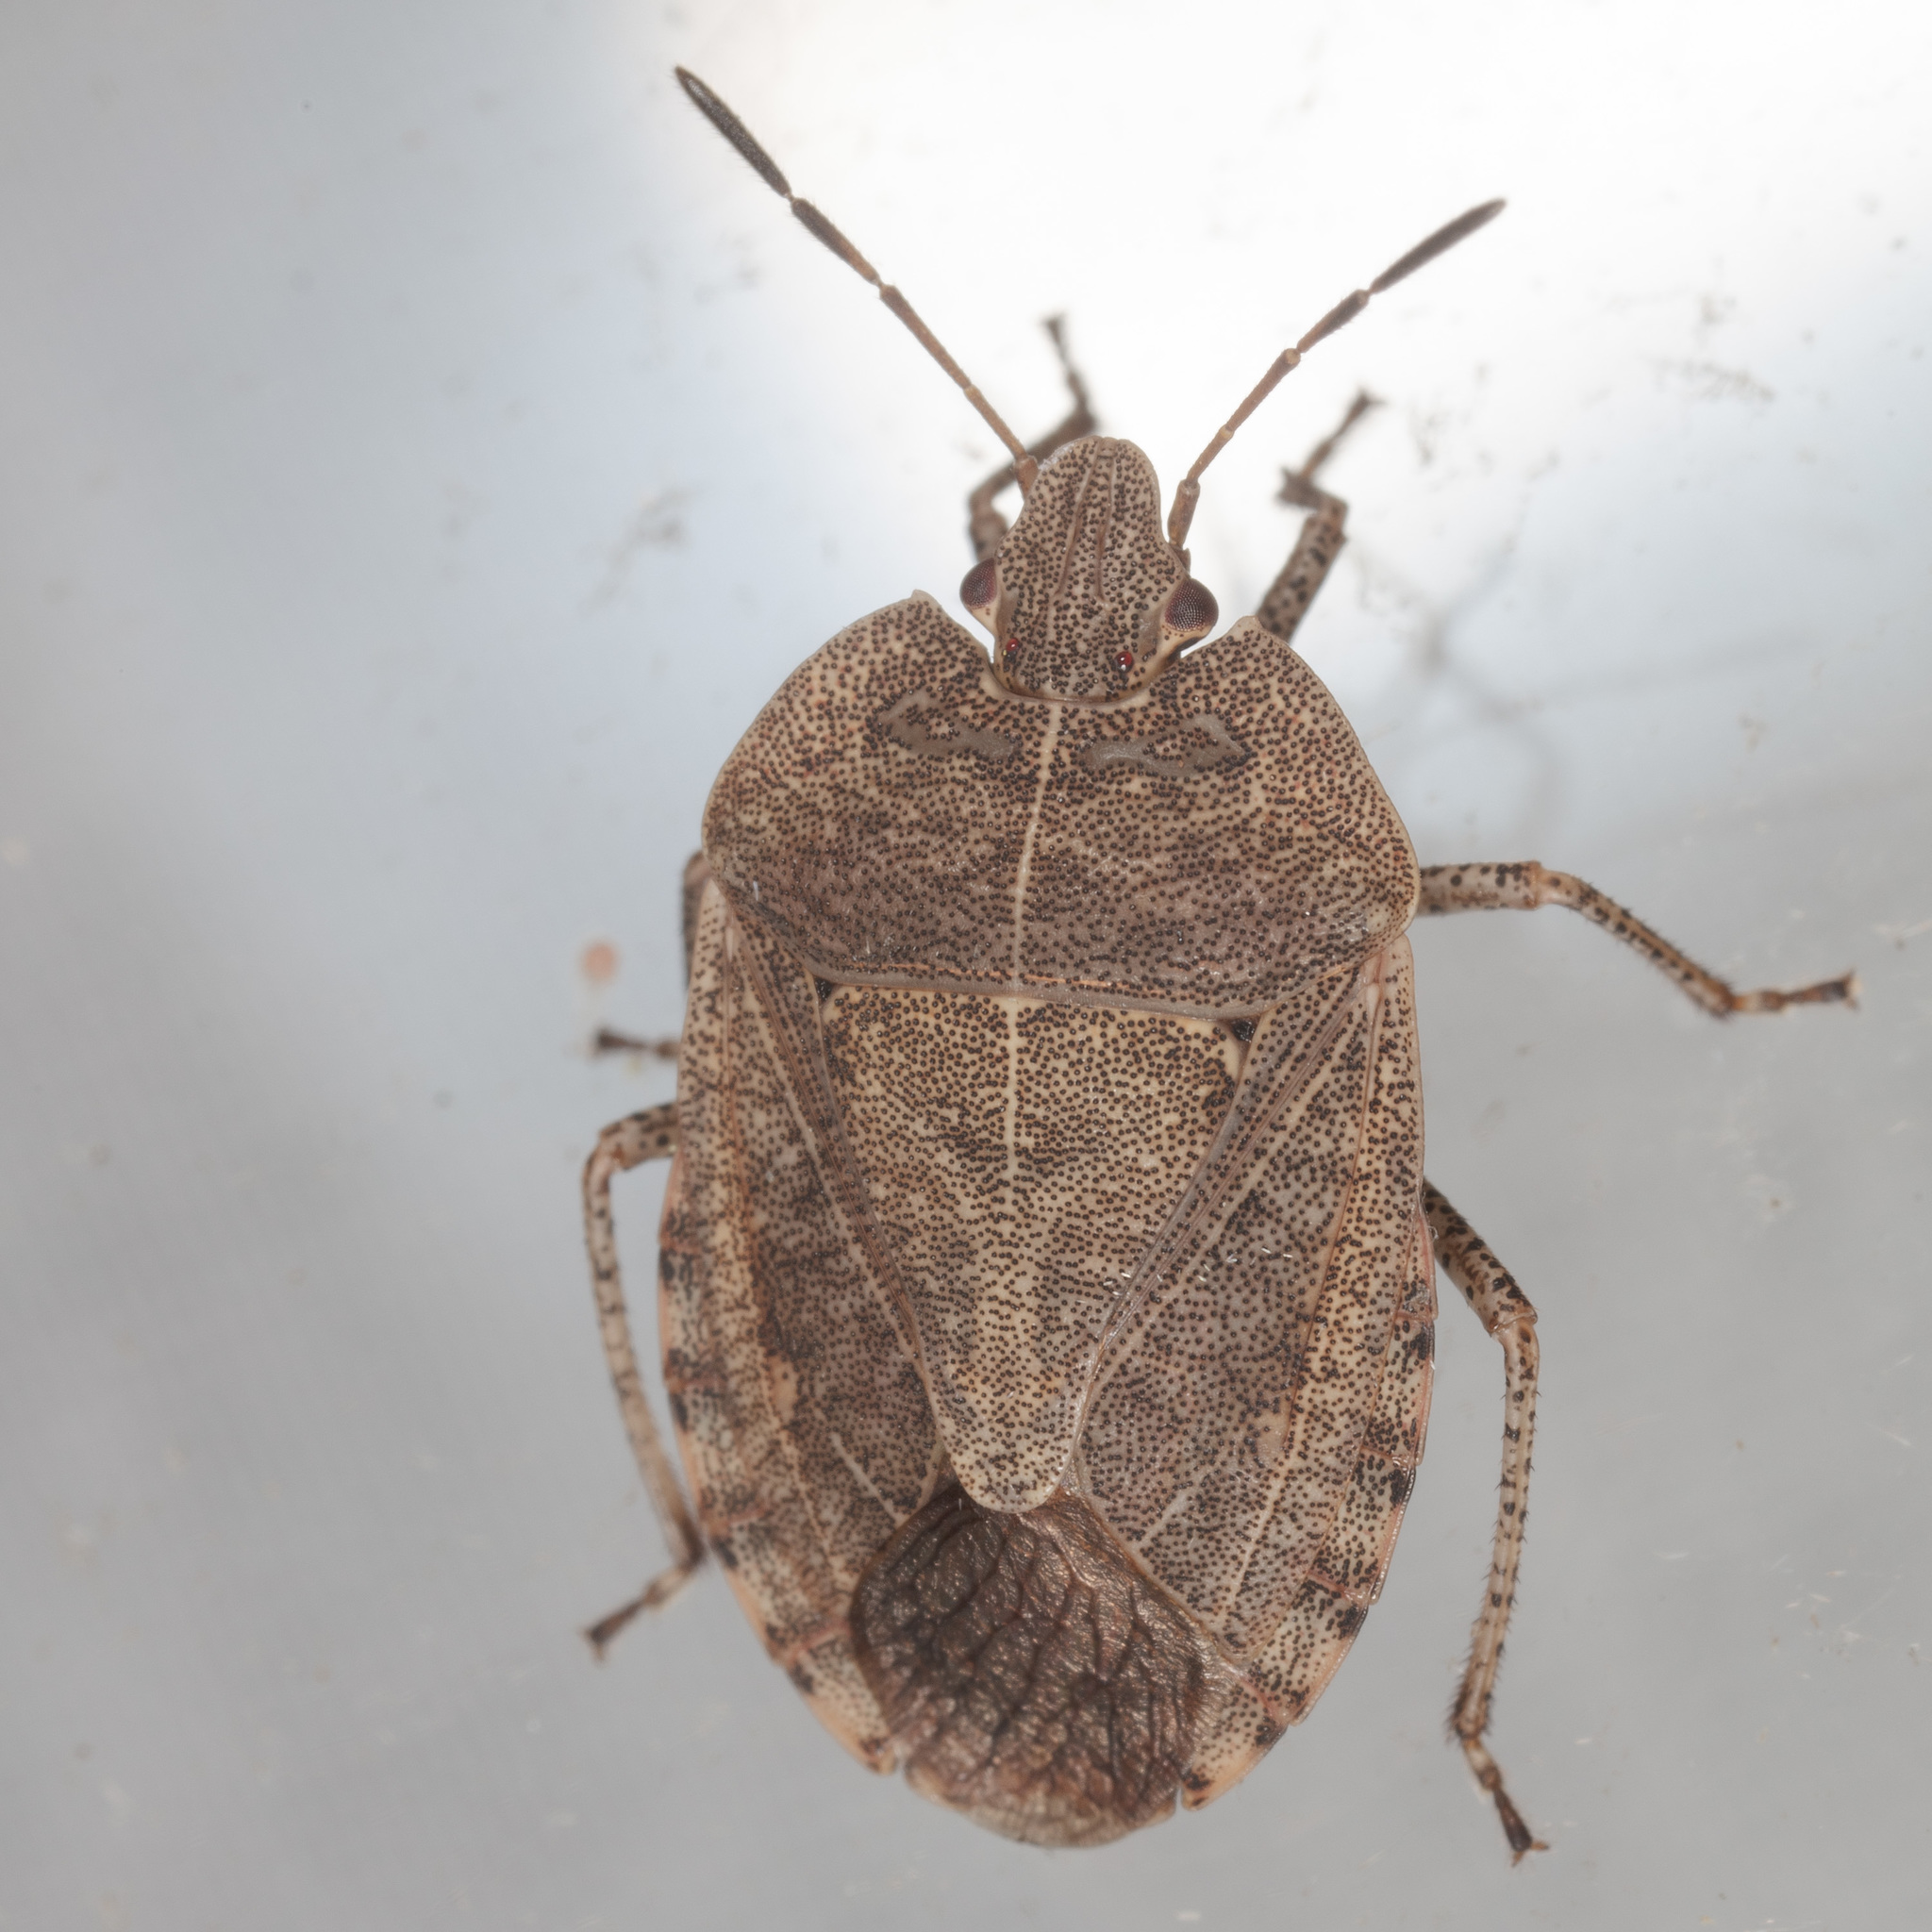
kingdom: Animalia
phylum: Arthropoda
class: Insecta
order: Hemiptera
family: Pentatomidae
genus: Menecles
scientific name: Menecles insertus
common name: Elf shoe stink bug
